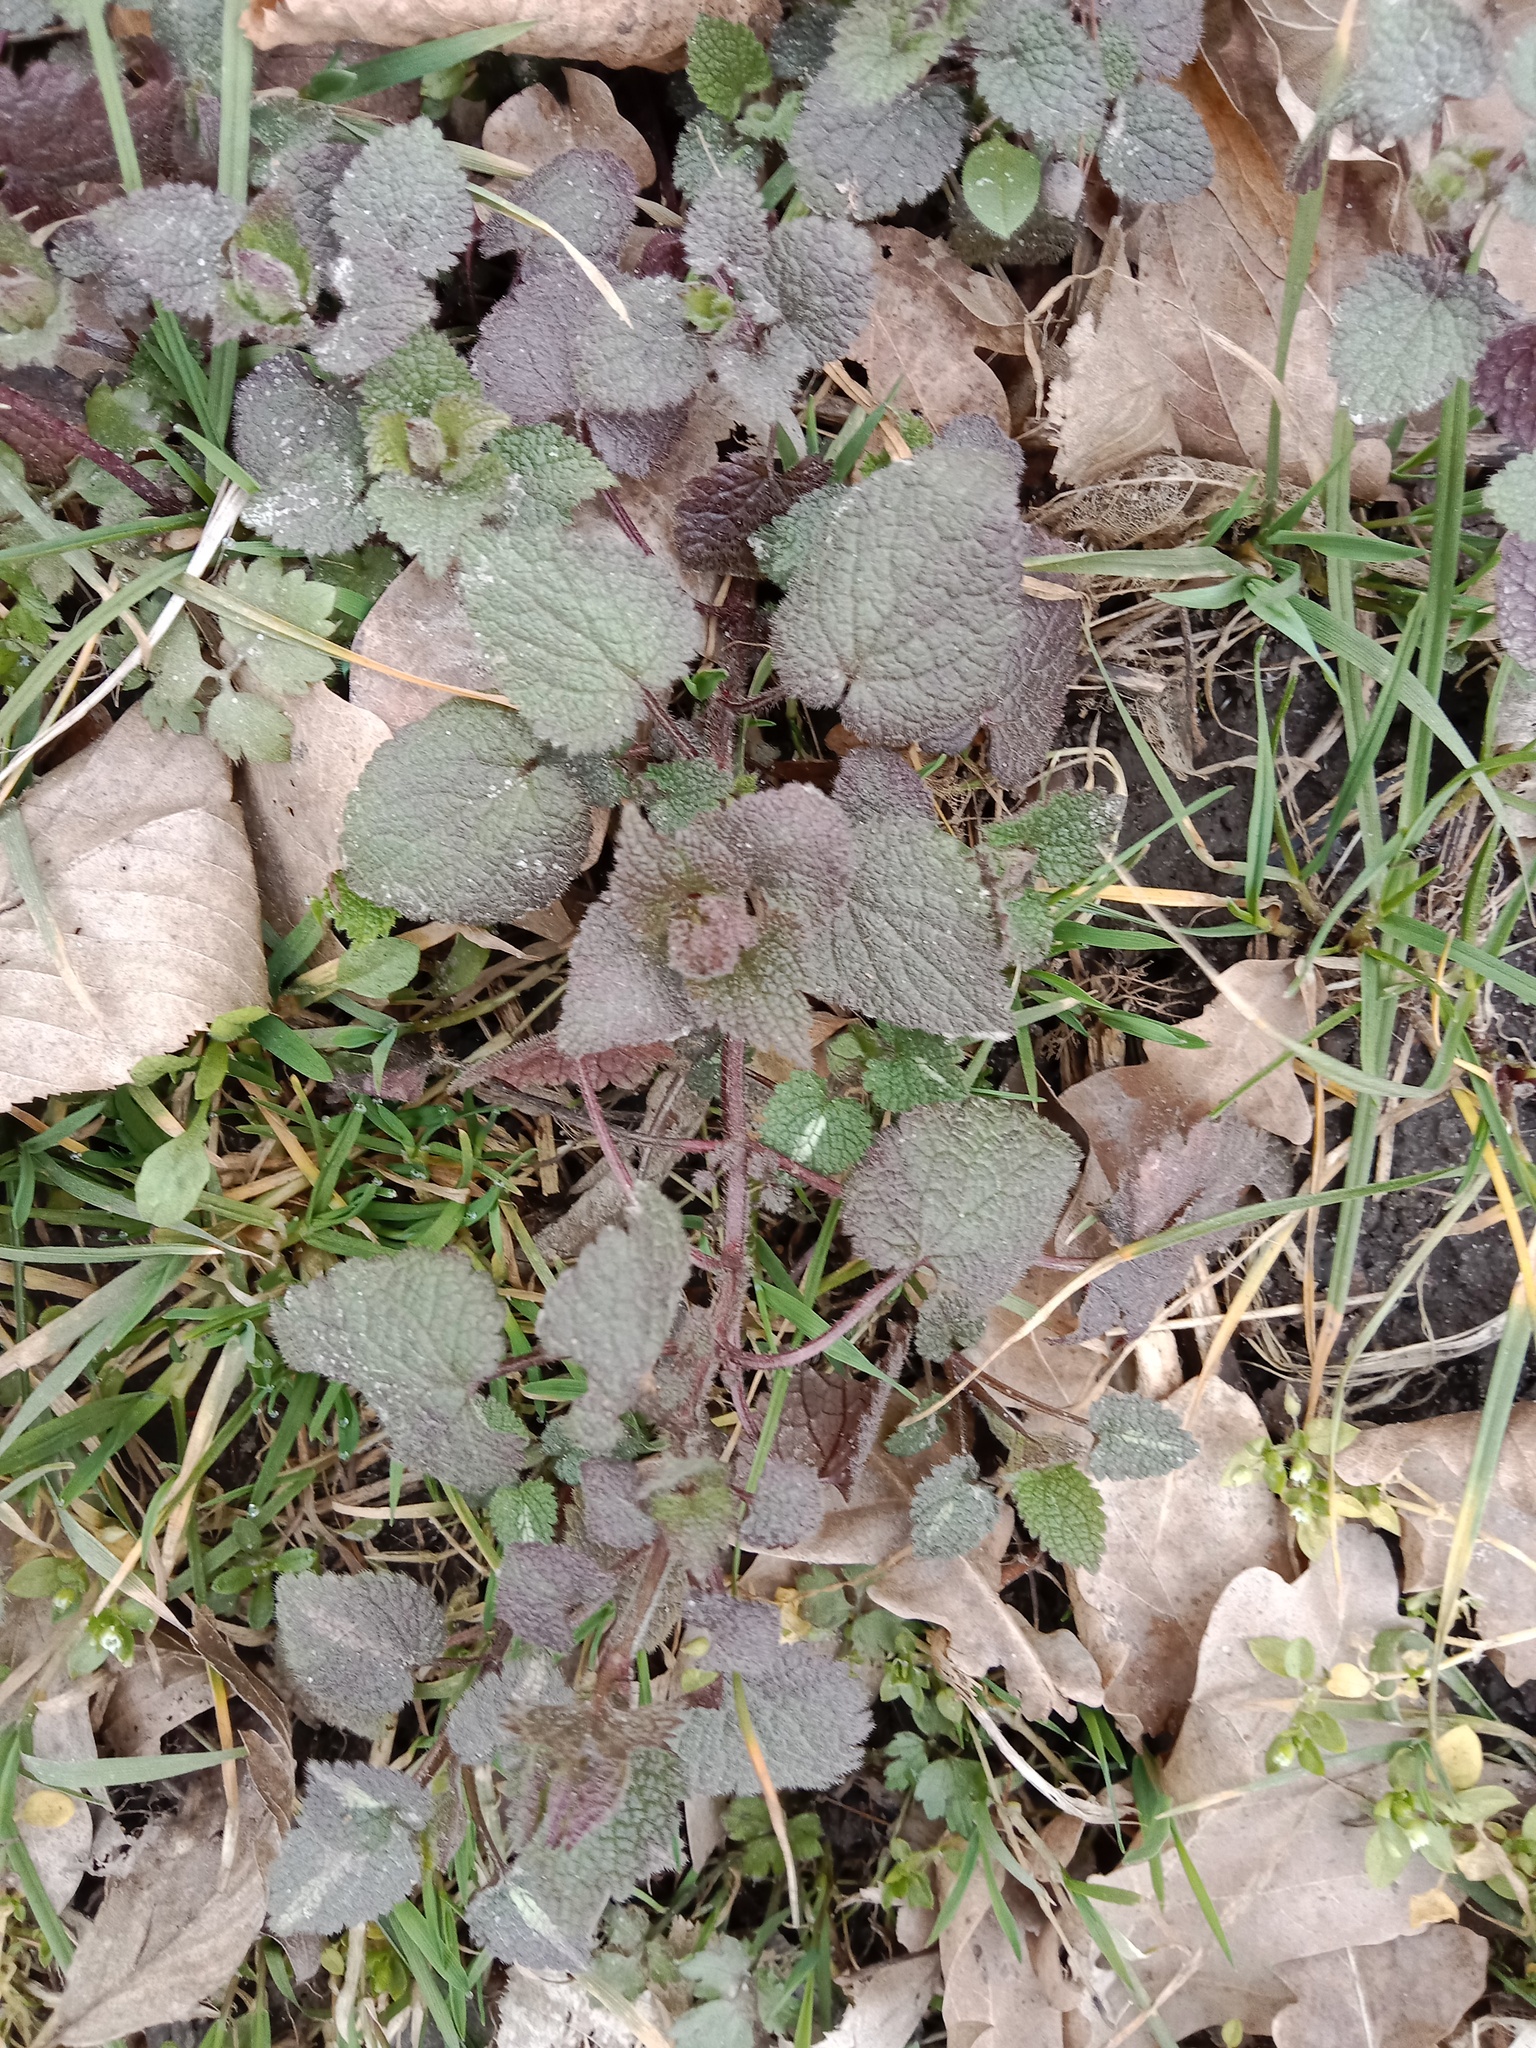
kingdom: Plantae
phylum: Tracheophyta
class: Magnoliopsida
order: Lamiales
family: Lamiaceae
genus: Lamium
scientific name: Lamium maculatum
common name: Spotted dead-nettle
